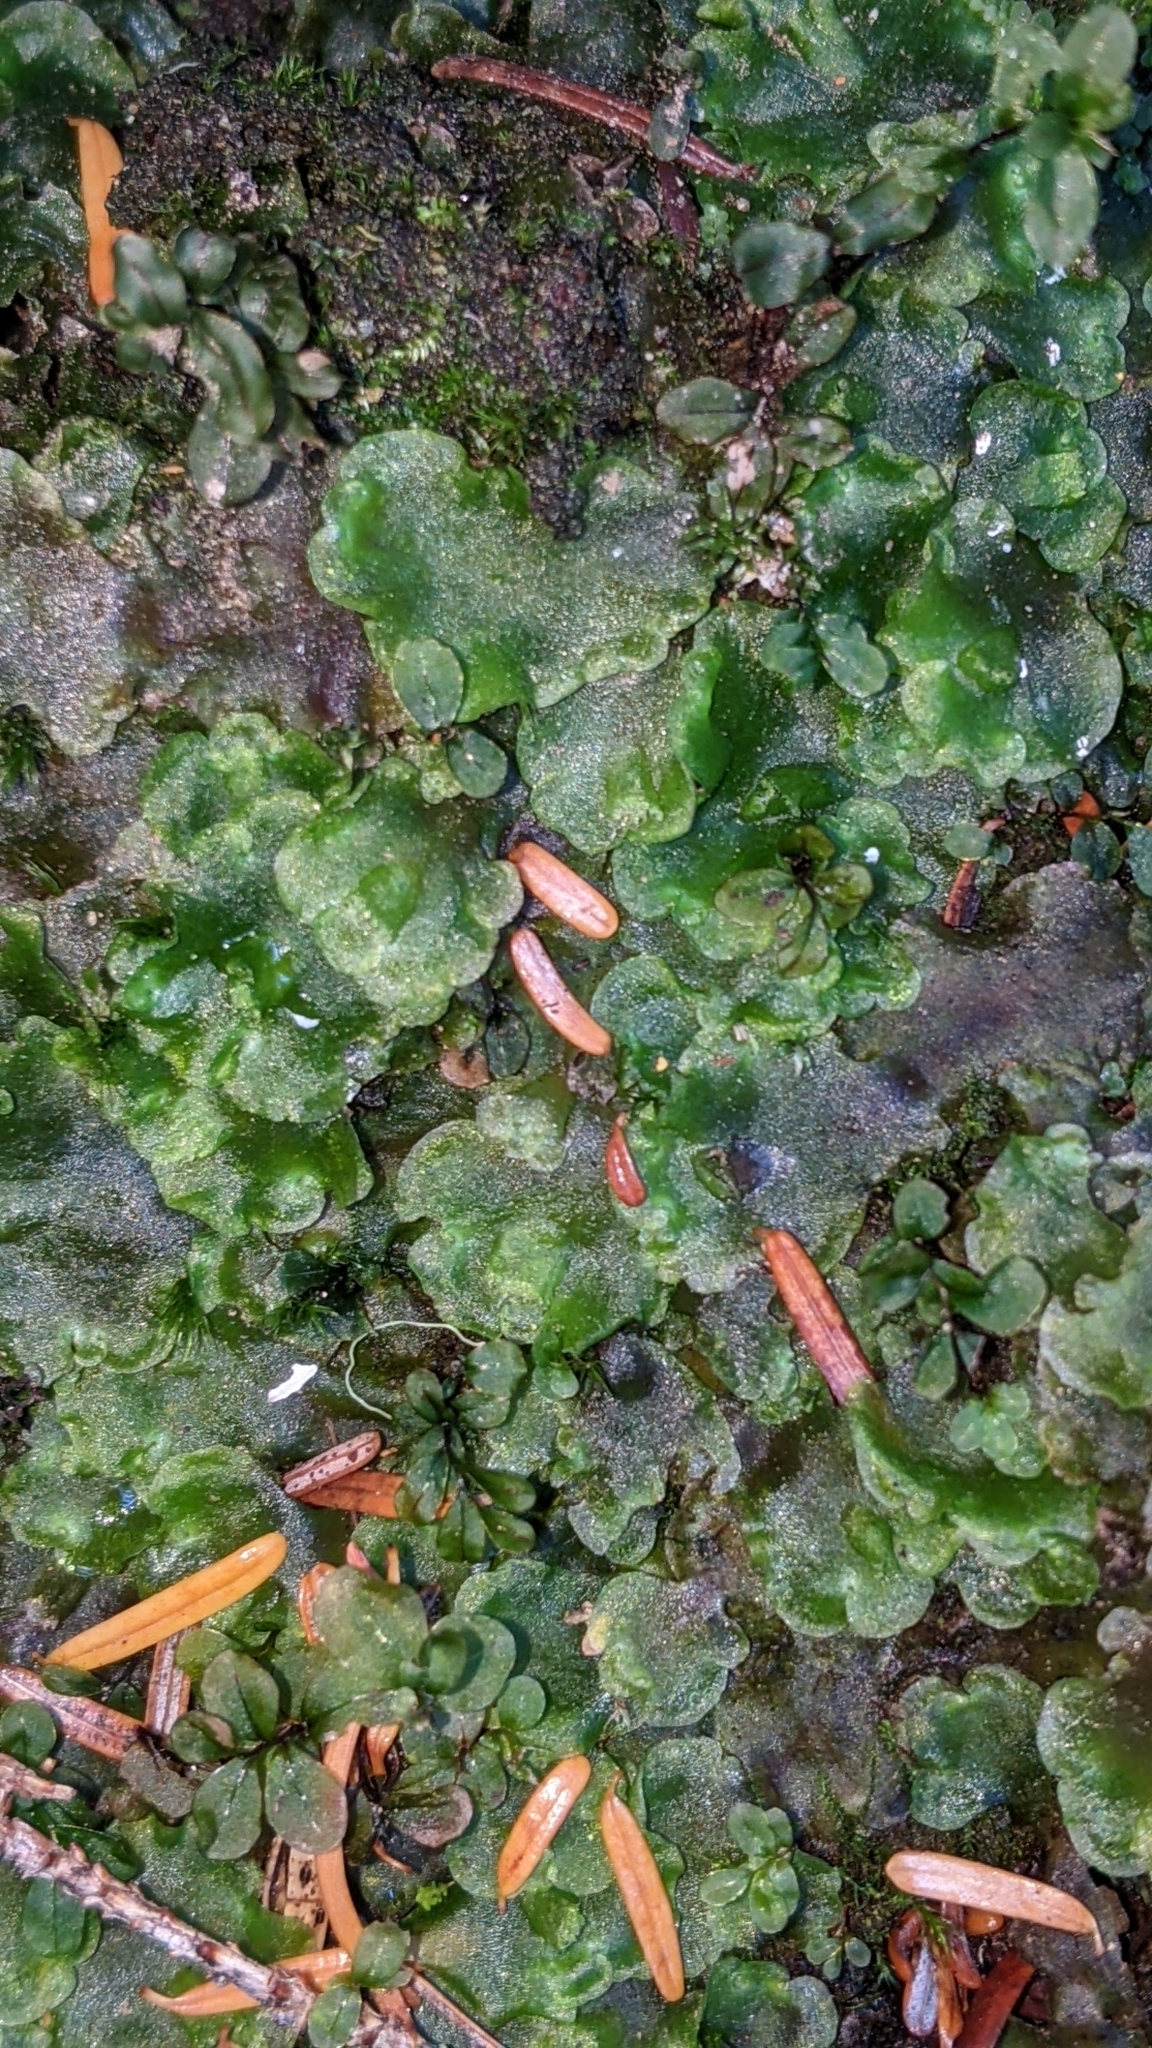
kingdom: Plantae
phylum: Marchantiophyta
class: Jungermanniopsida
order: Pelliales
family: Pelliaceae
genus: Pellia
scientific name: Pellia neesiana
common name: Nees  pellia
